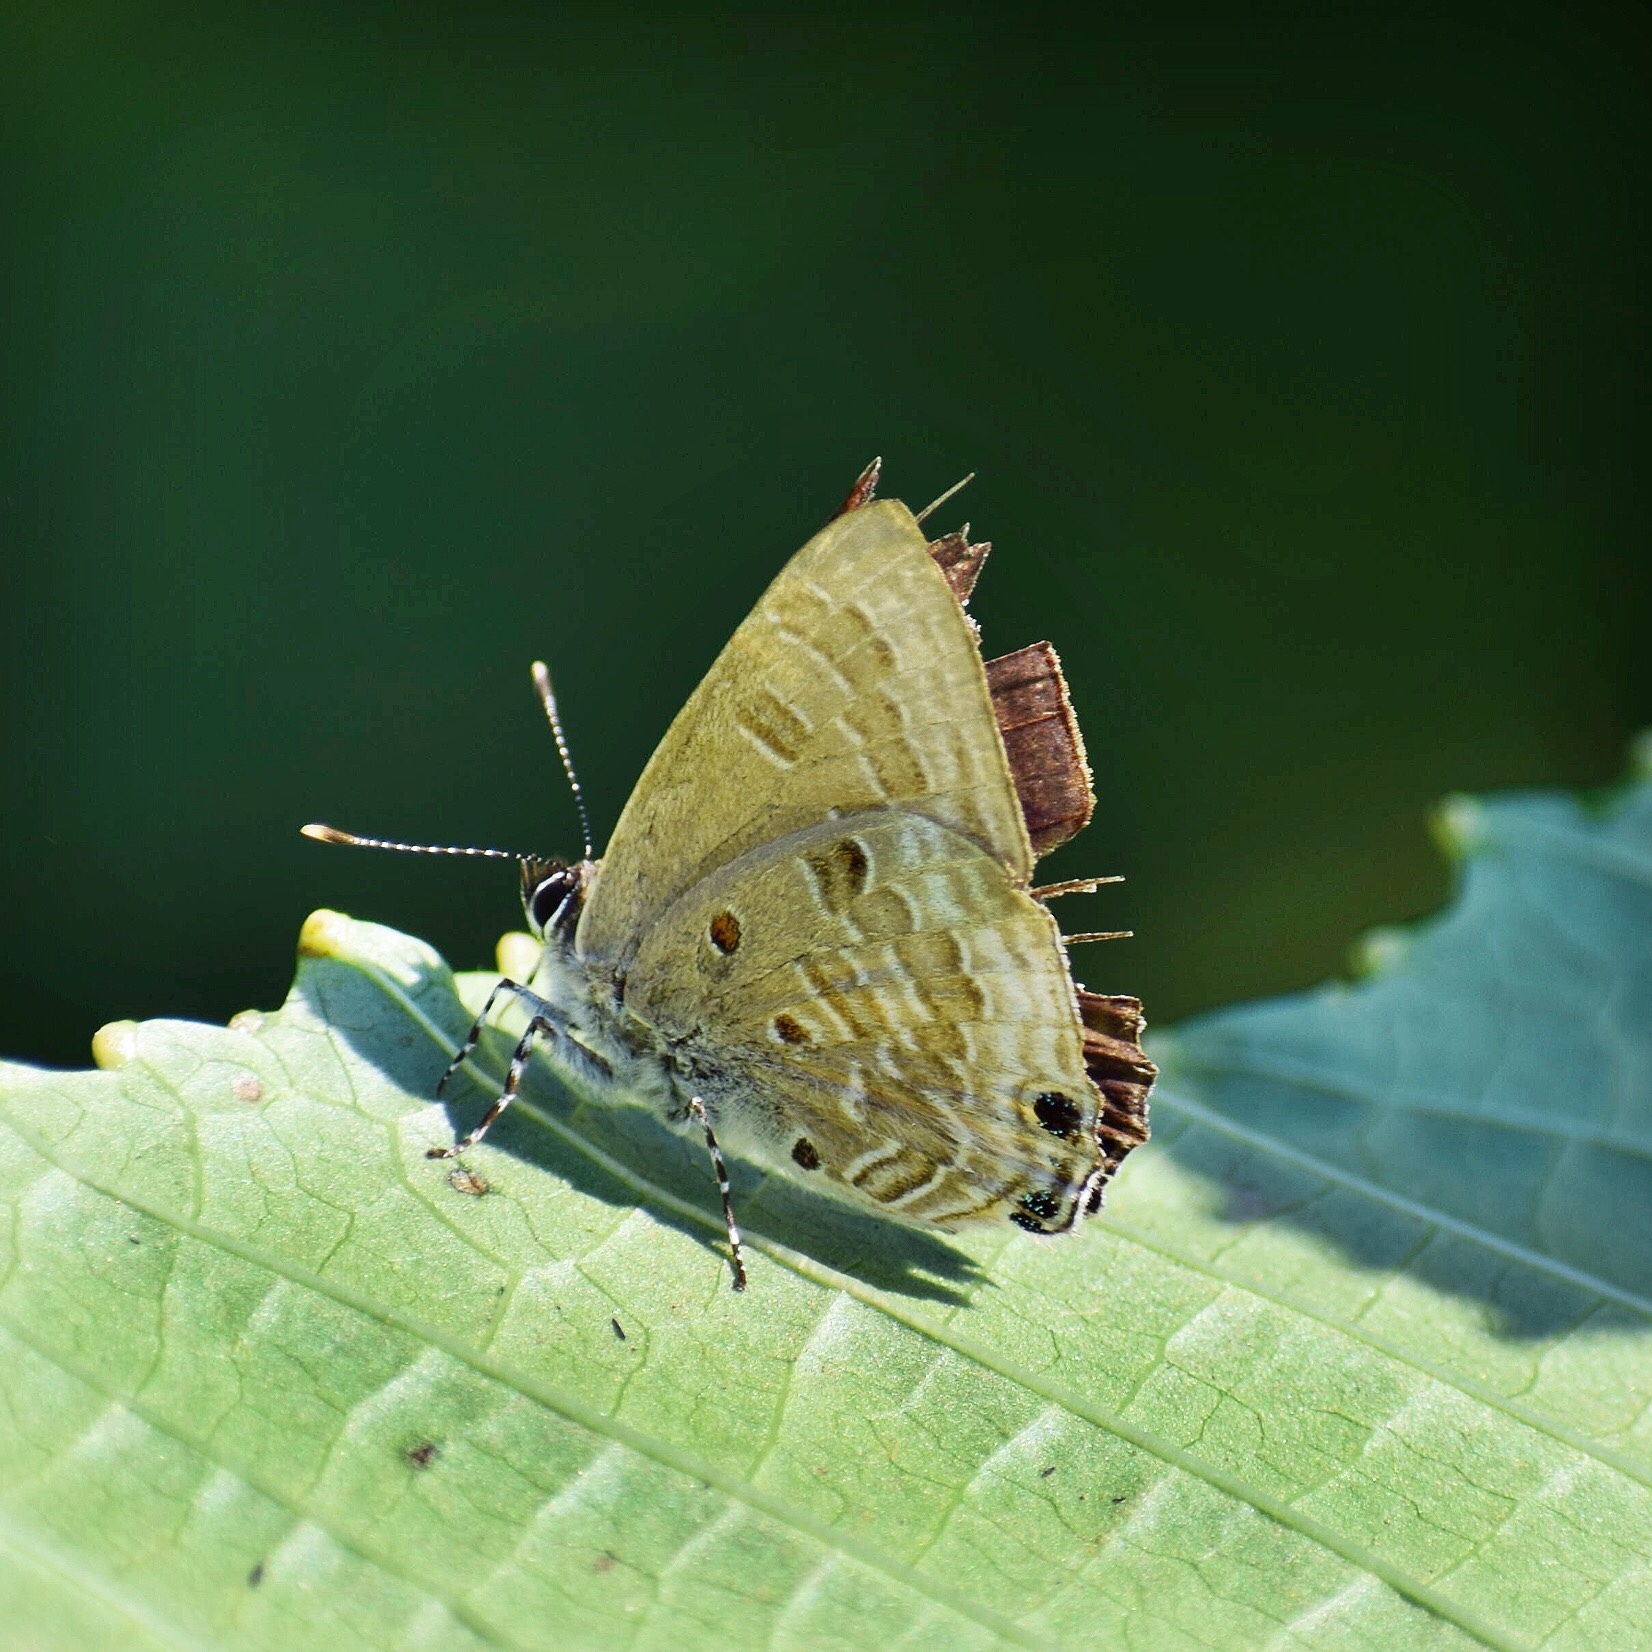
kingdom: Animalia
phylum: Arthropoda
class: Insecta
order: Lepidoptera
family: Lycaenidae
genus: Anthene
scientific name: Anthene lemnos
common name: Large ciliate blue
